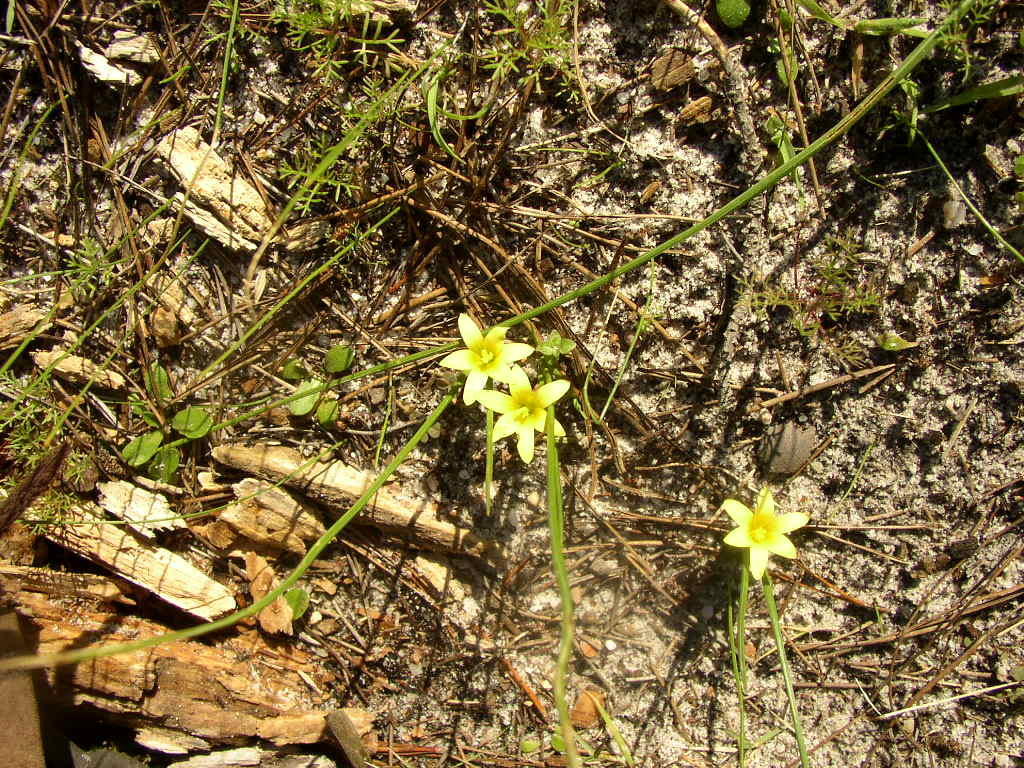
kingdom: Plantae
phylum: Tracheophyta
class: Liliopsida
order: Asparagales
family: Iridaceae
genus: Romulea
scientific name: Romulea flava
